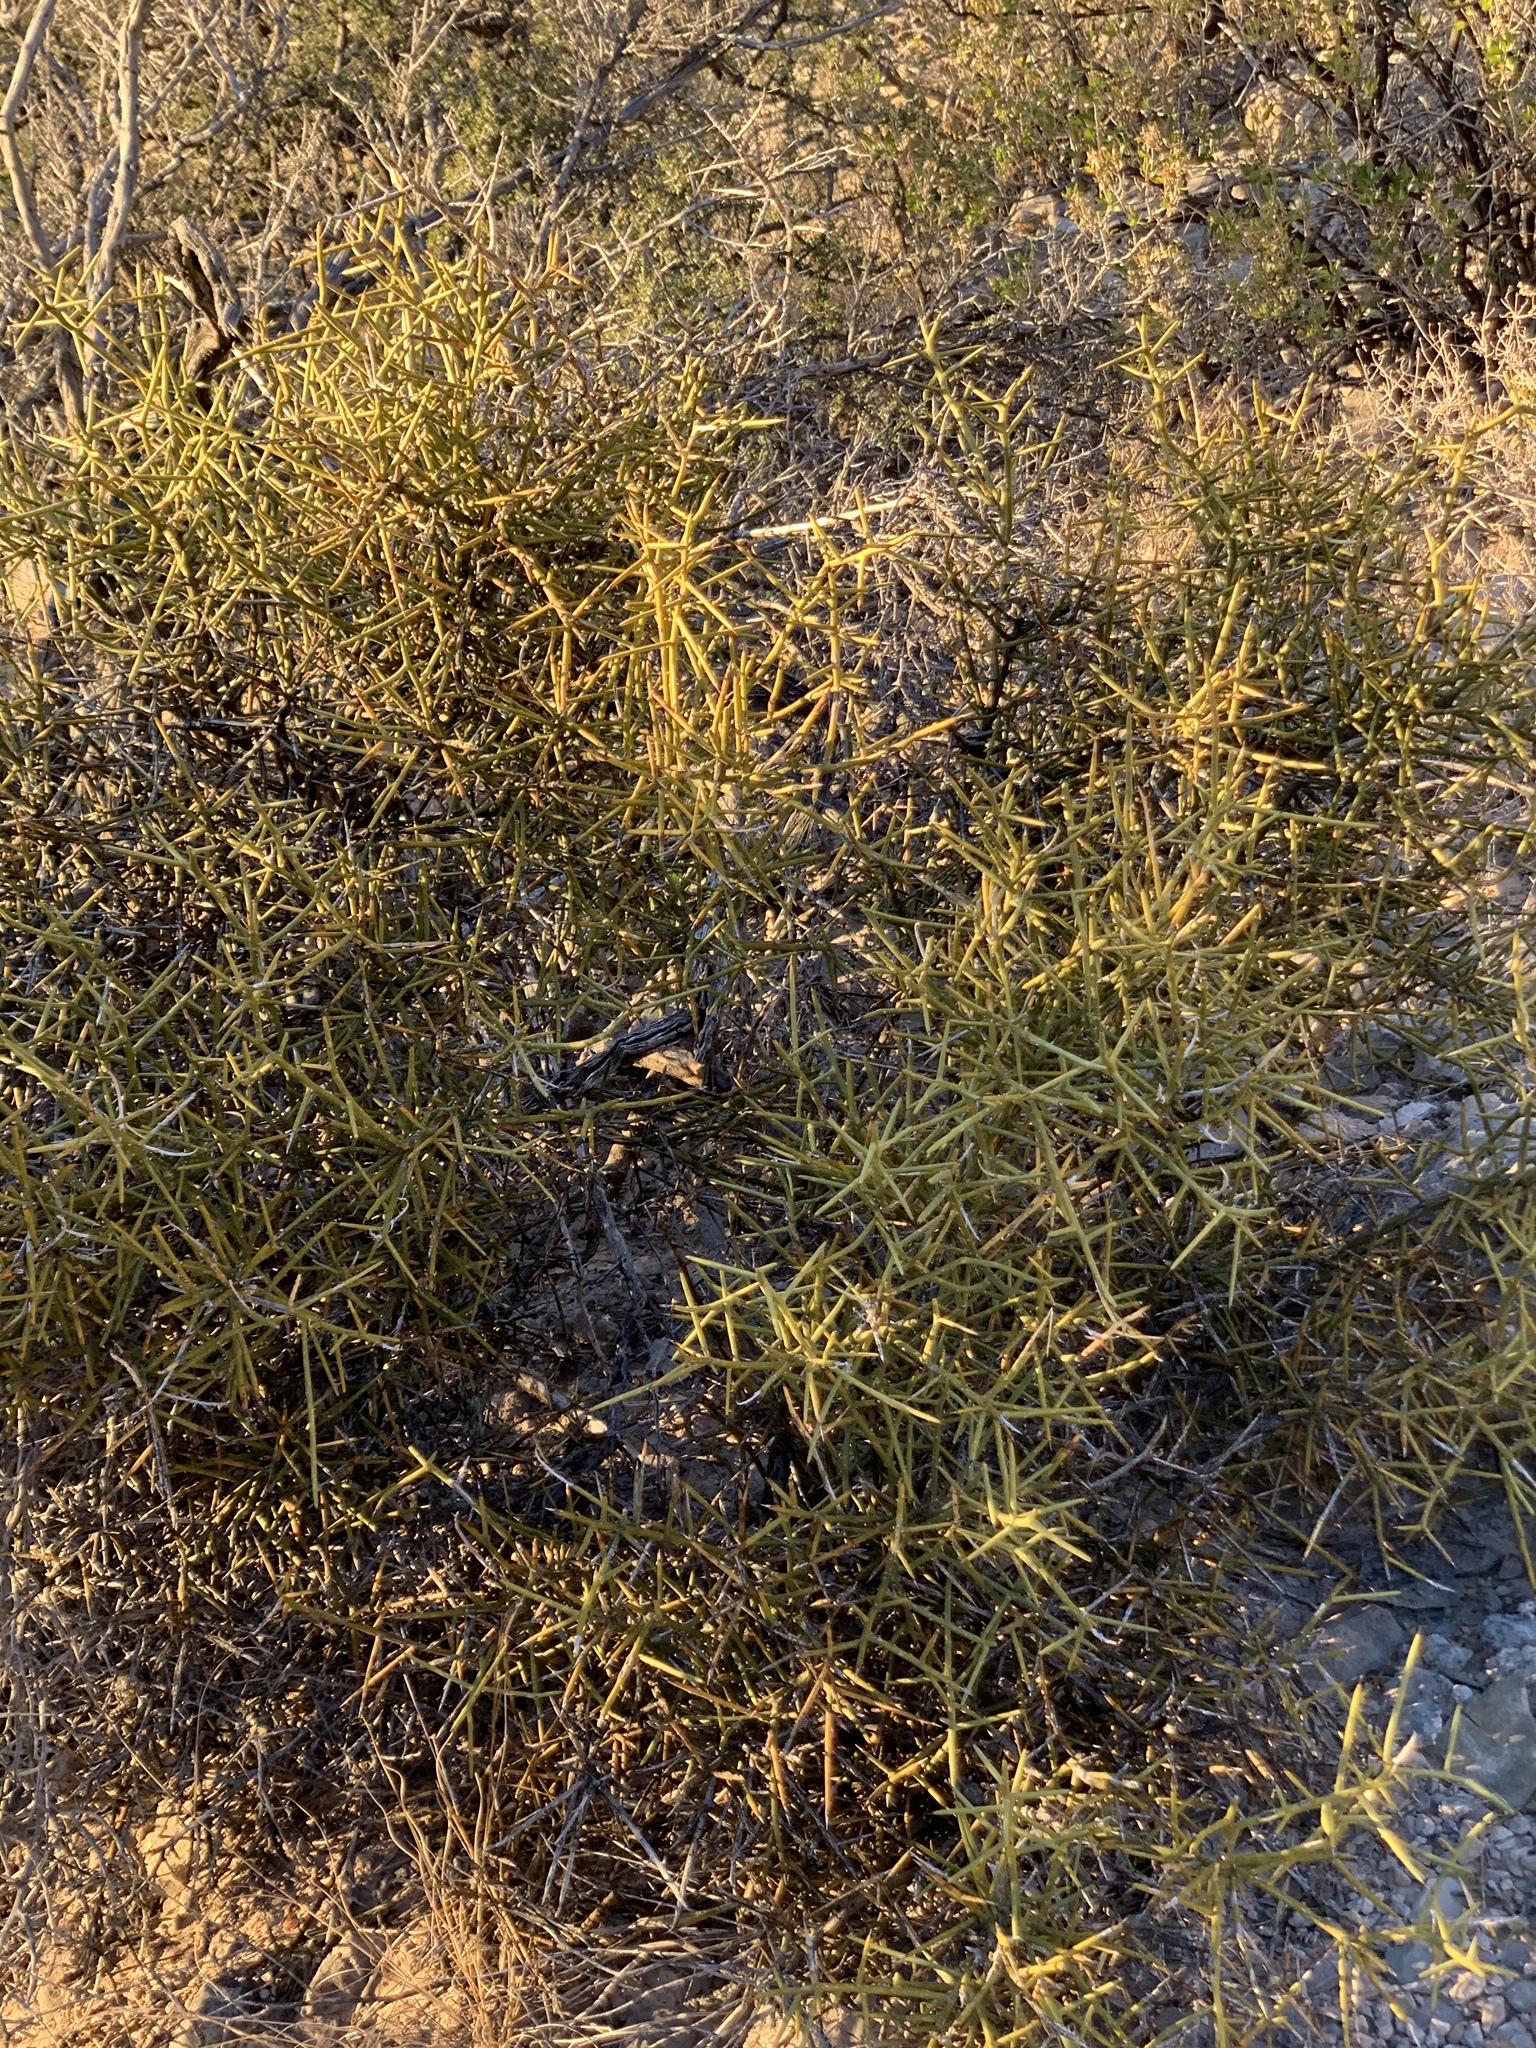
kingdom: Plantae
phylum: Tracheophyta
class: Magnoliopsida
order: Brassicales
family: Koeberliniaceae
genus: Koeberlinia
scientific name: Koeberlinia spinosa
